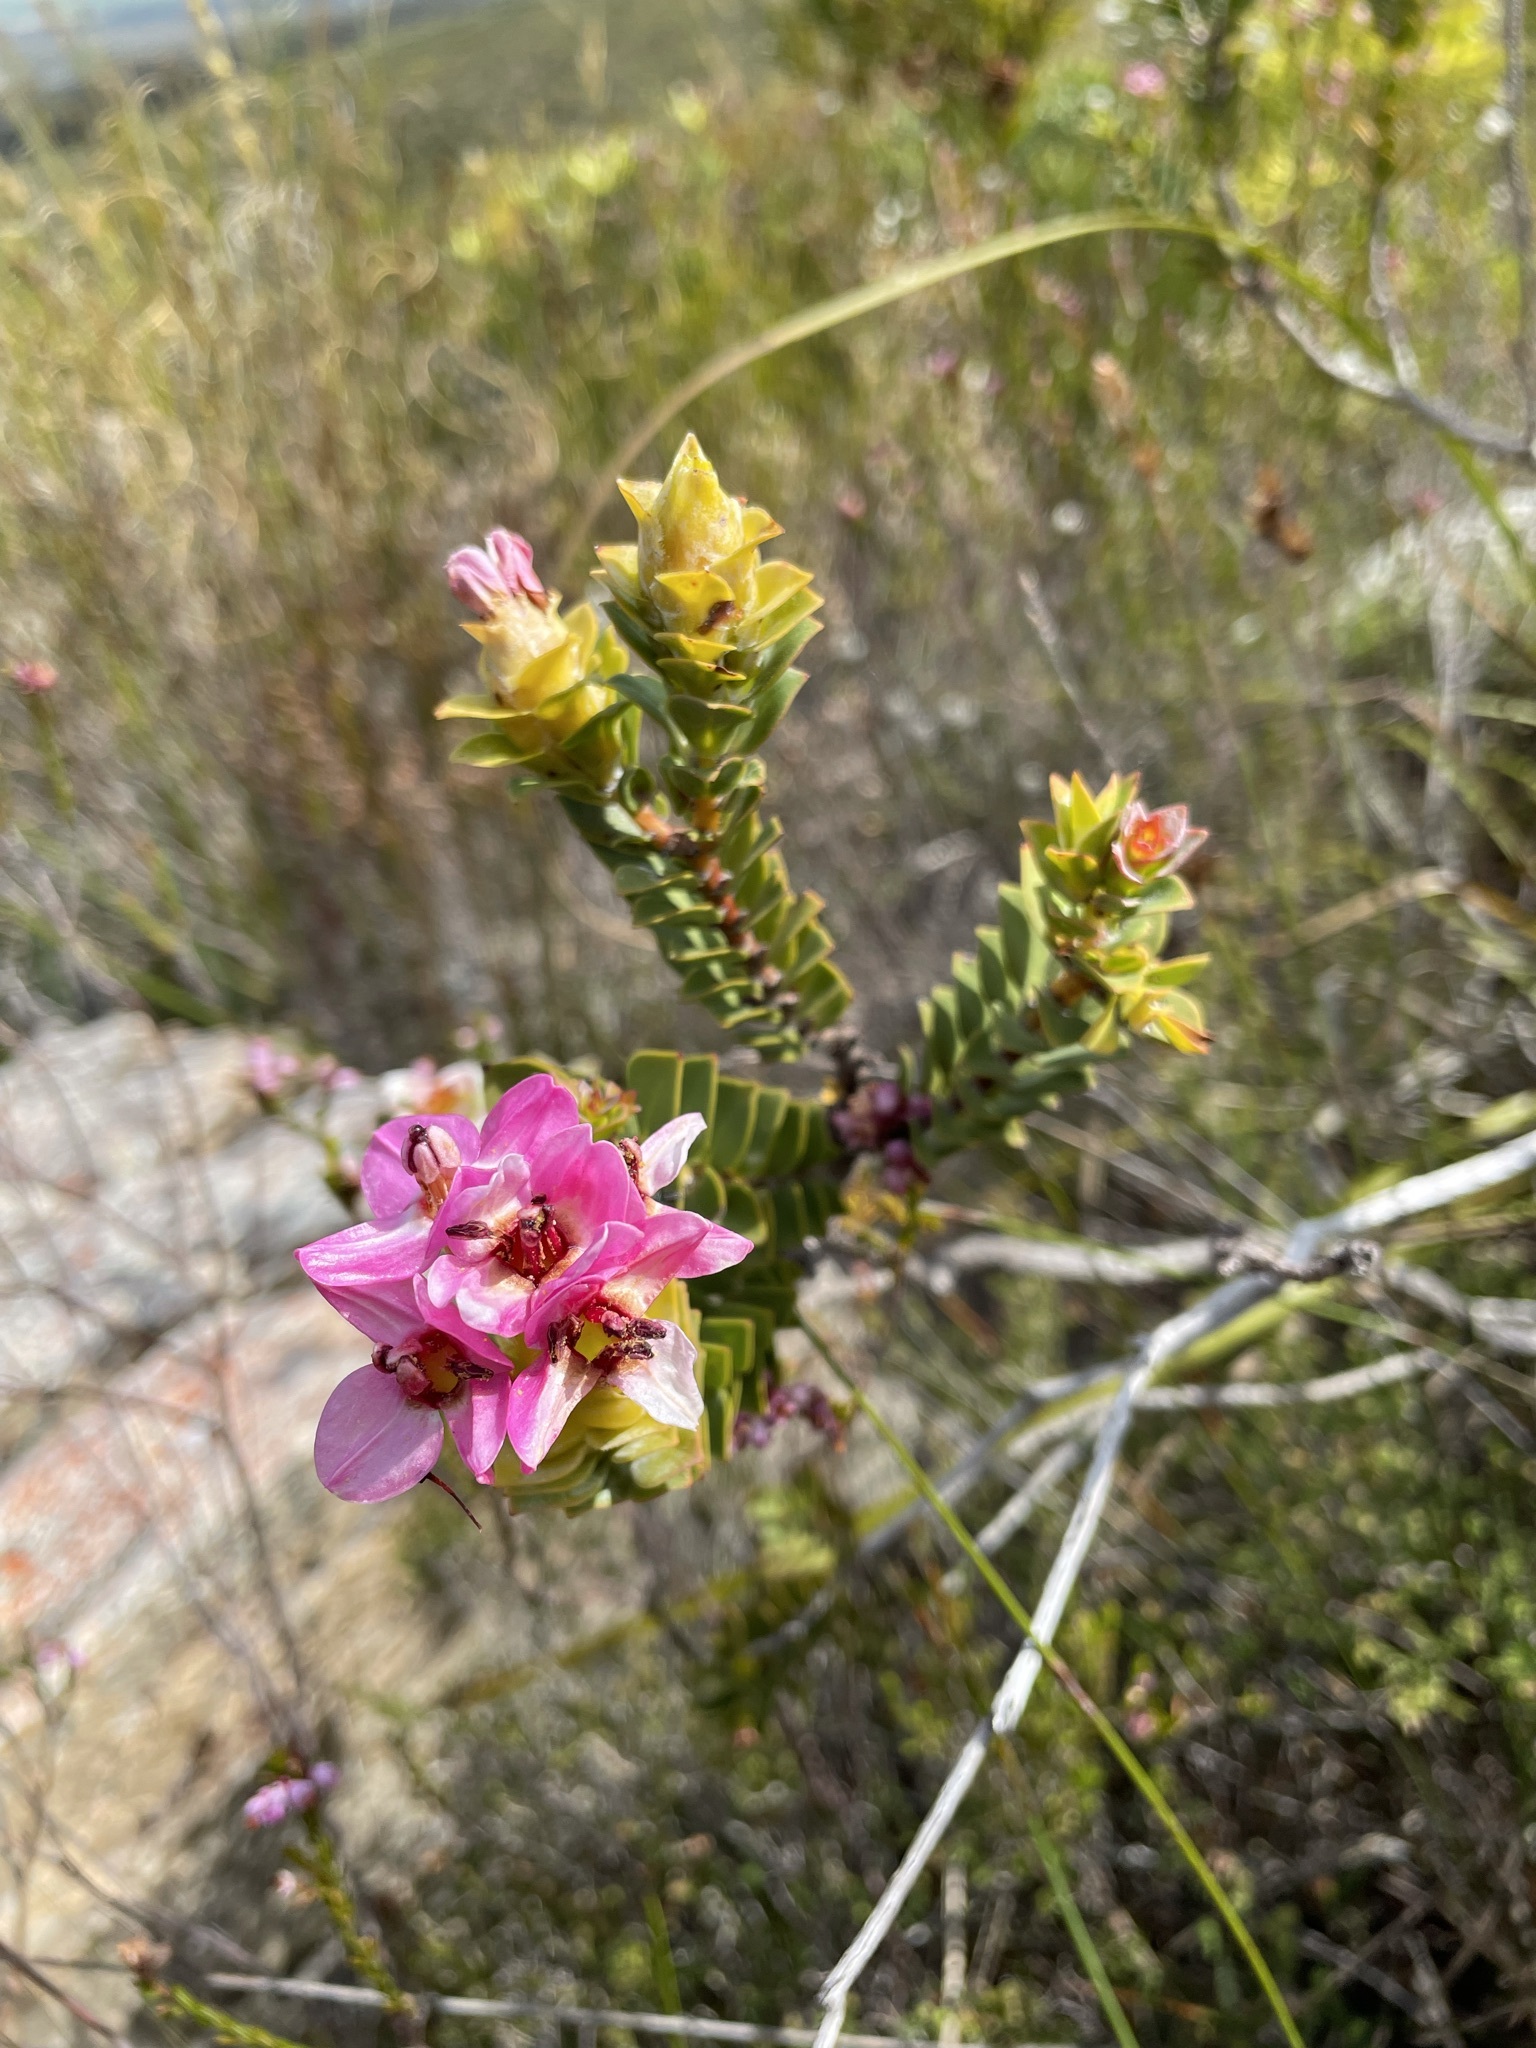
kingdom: Plantae
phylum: Tracheophyta
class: Magnoliopsida
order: Myrtales
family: Penaeaceae
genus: Saltera
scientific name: Saltera sarcocolla
